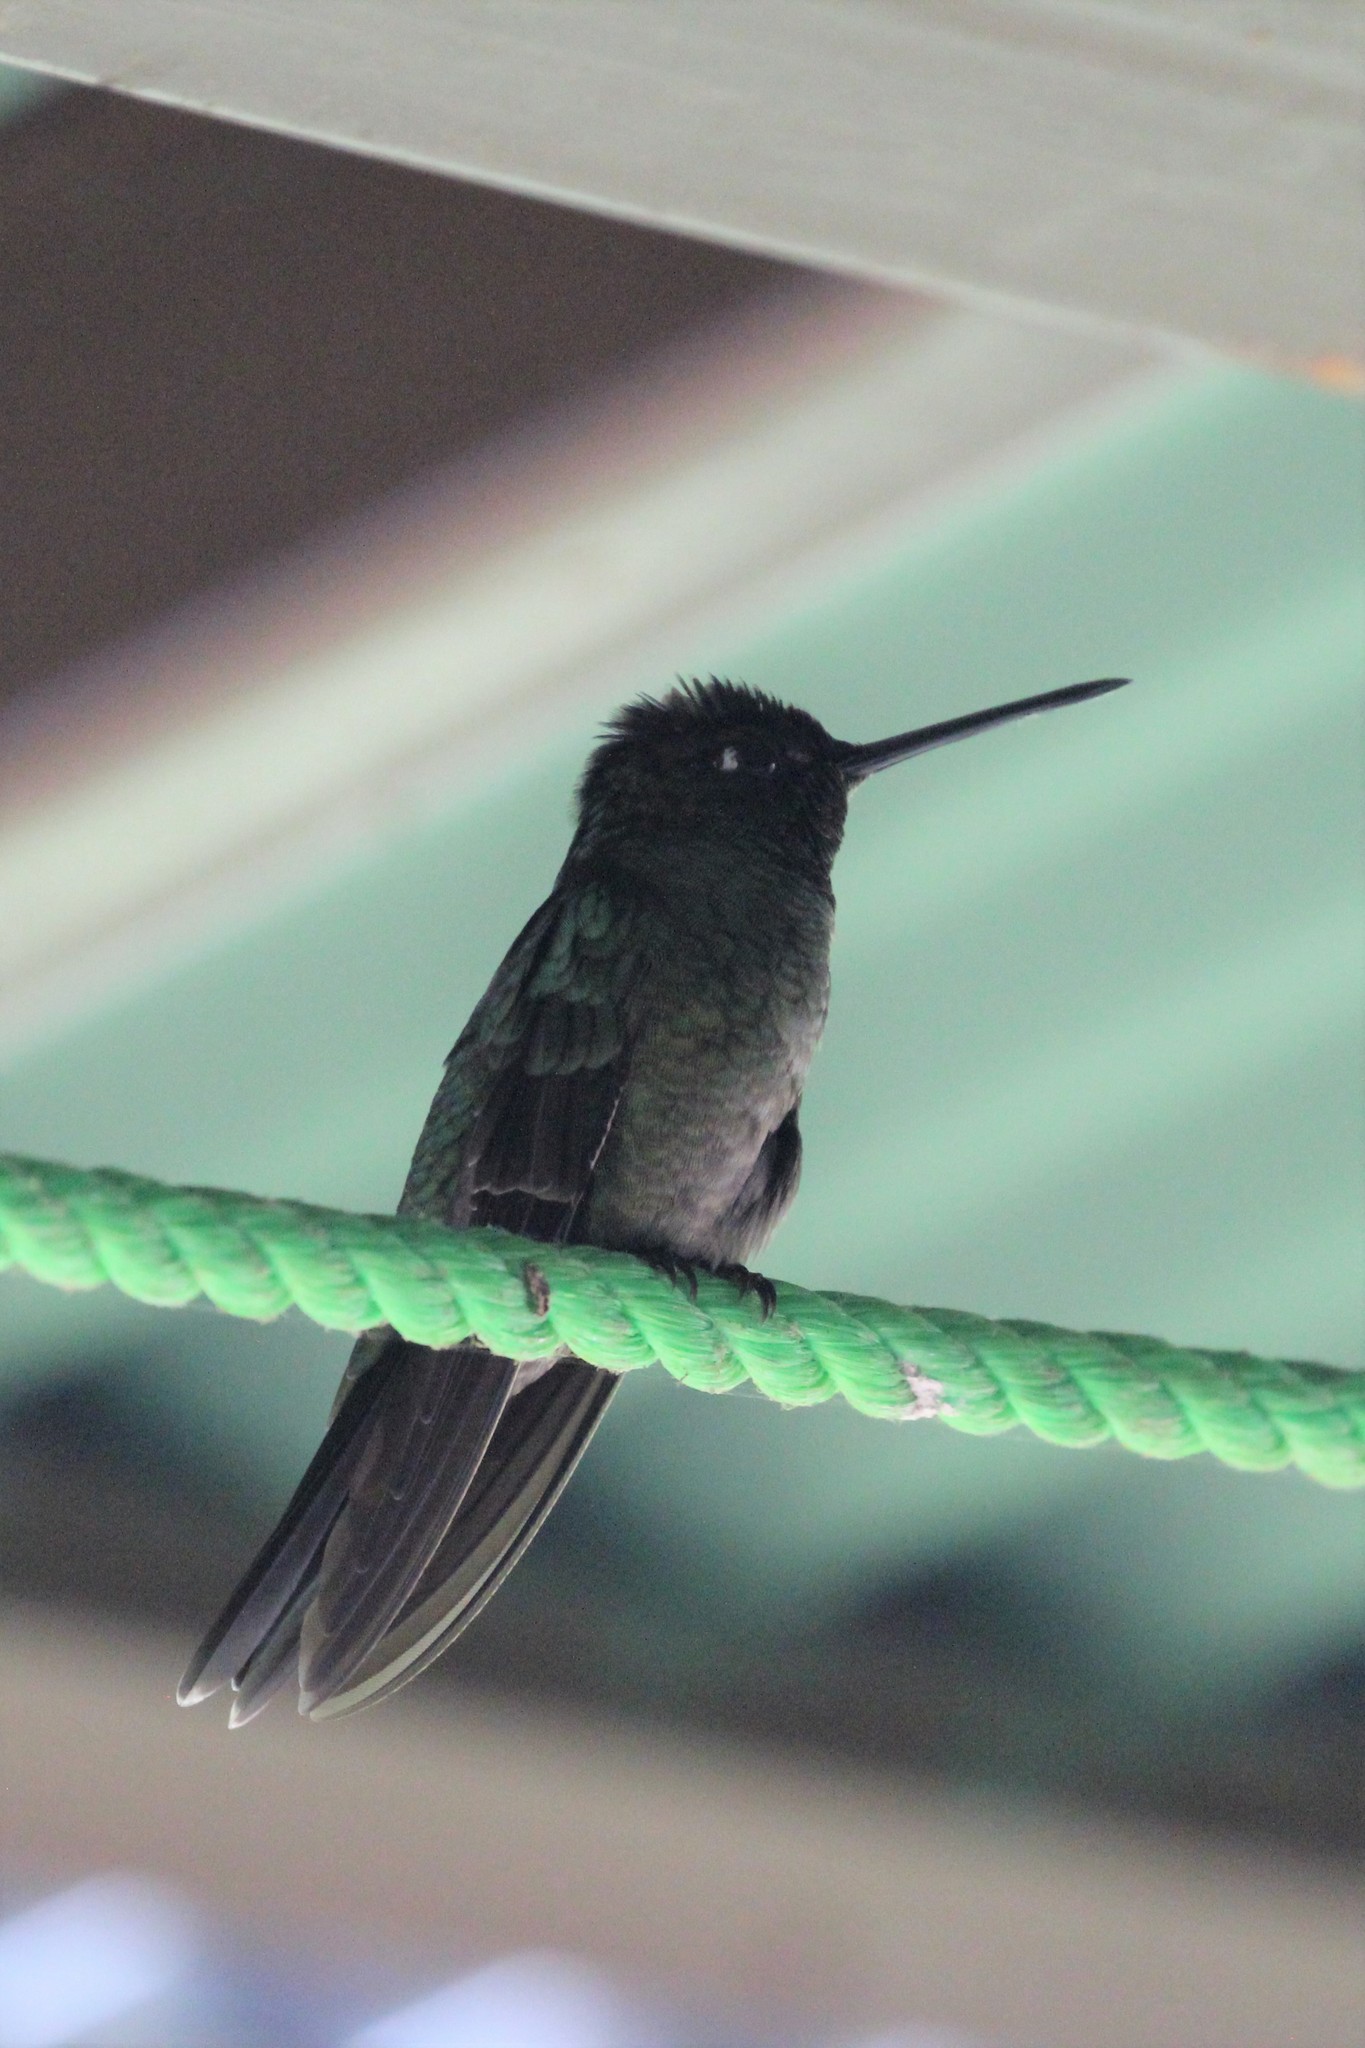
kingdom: Animalia
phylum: Chordata
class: Aves
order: Apodiformes
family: Trochilidae
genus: Eugenes
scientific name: Eugenes spectabilis
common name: Talamanca hummingbird
